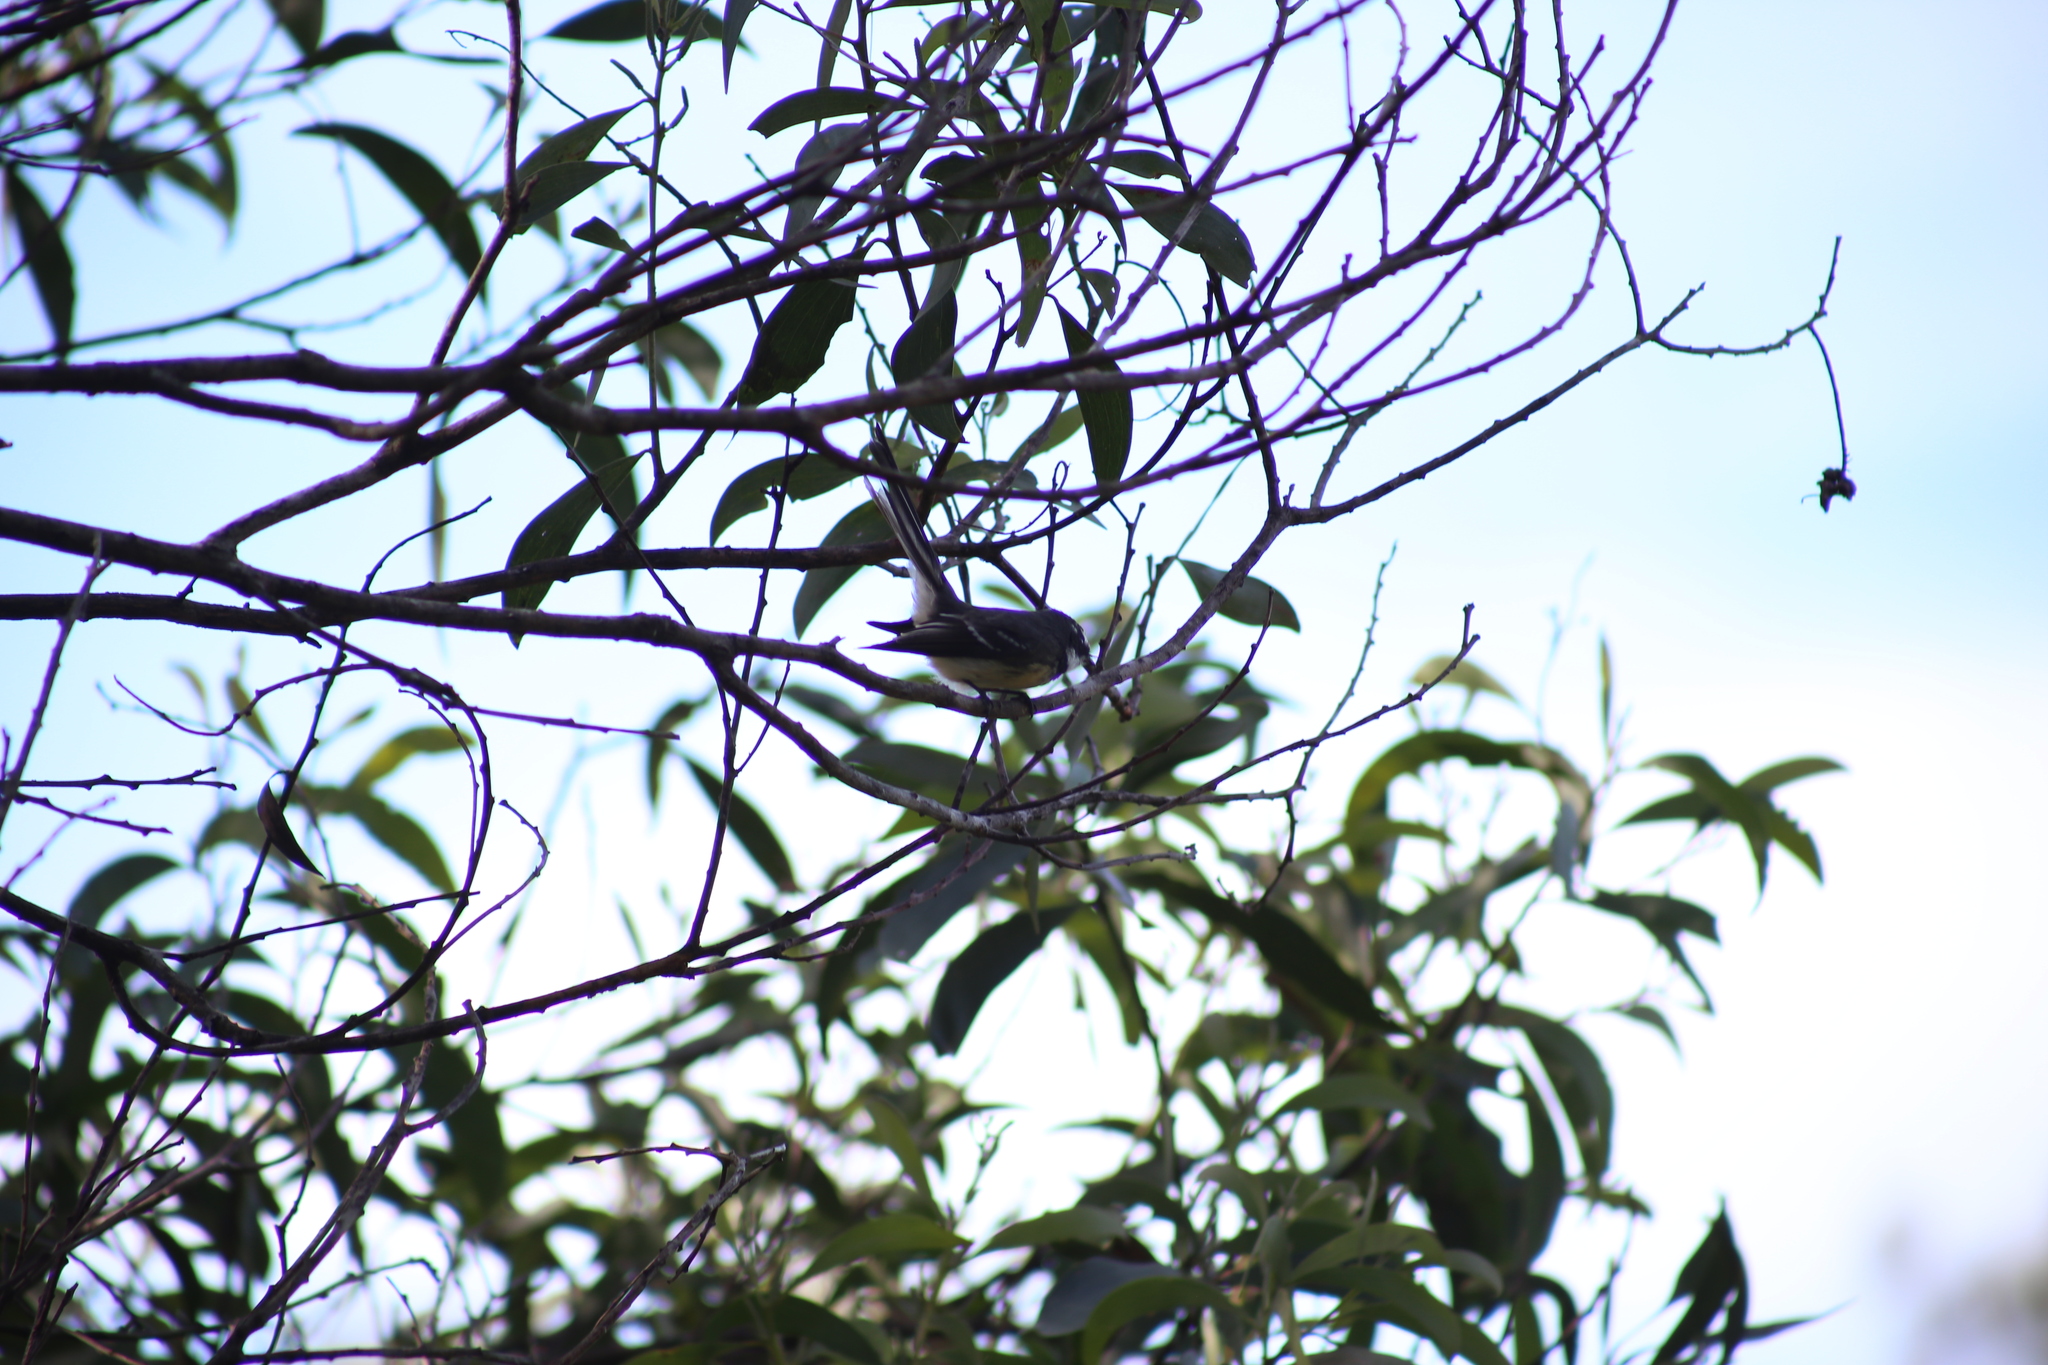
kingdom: Animalia
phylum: Chordata
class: Aves
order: Passeriformes
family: Rhipiduridae
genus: Rhipidura
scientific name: Rhipidura albiscapa
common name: Grey fantail
